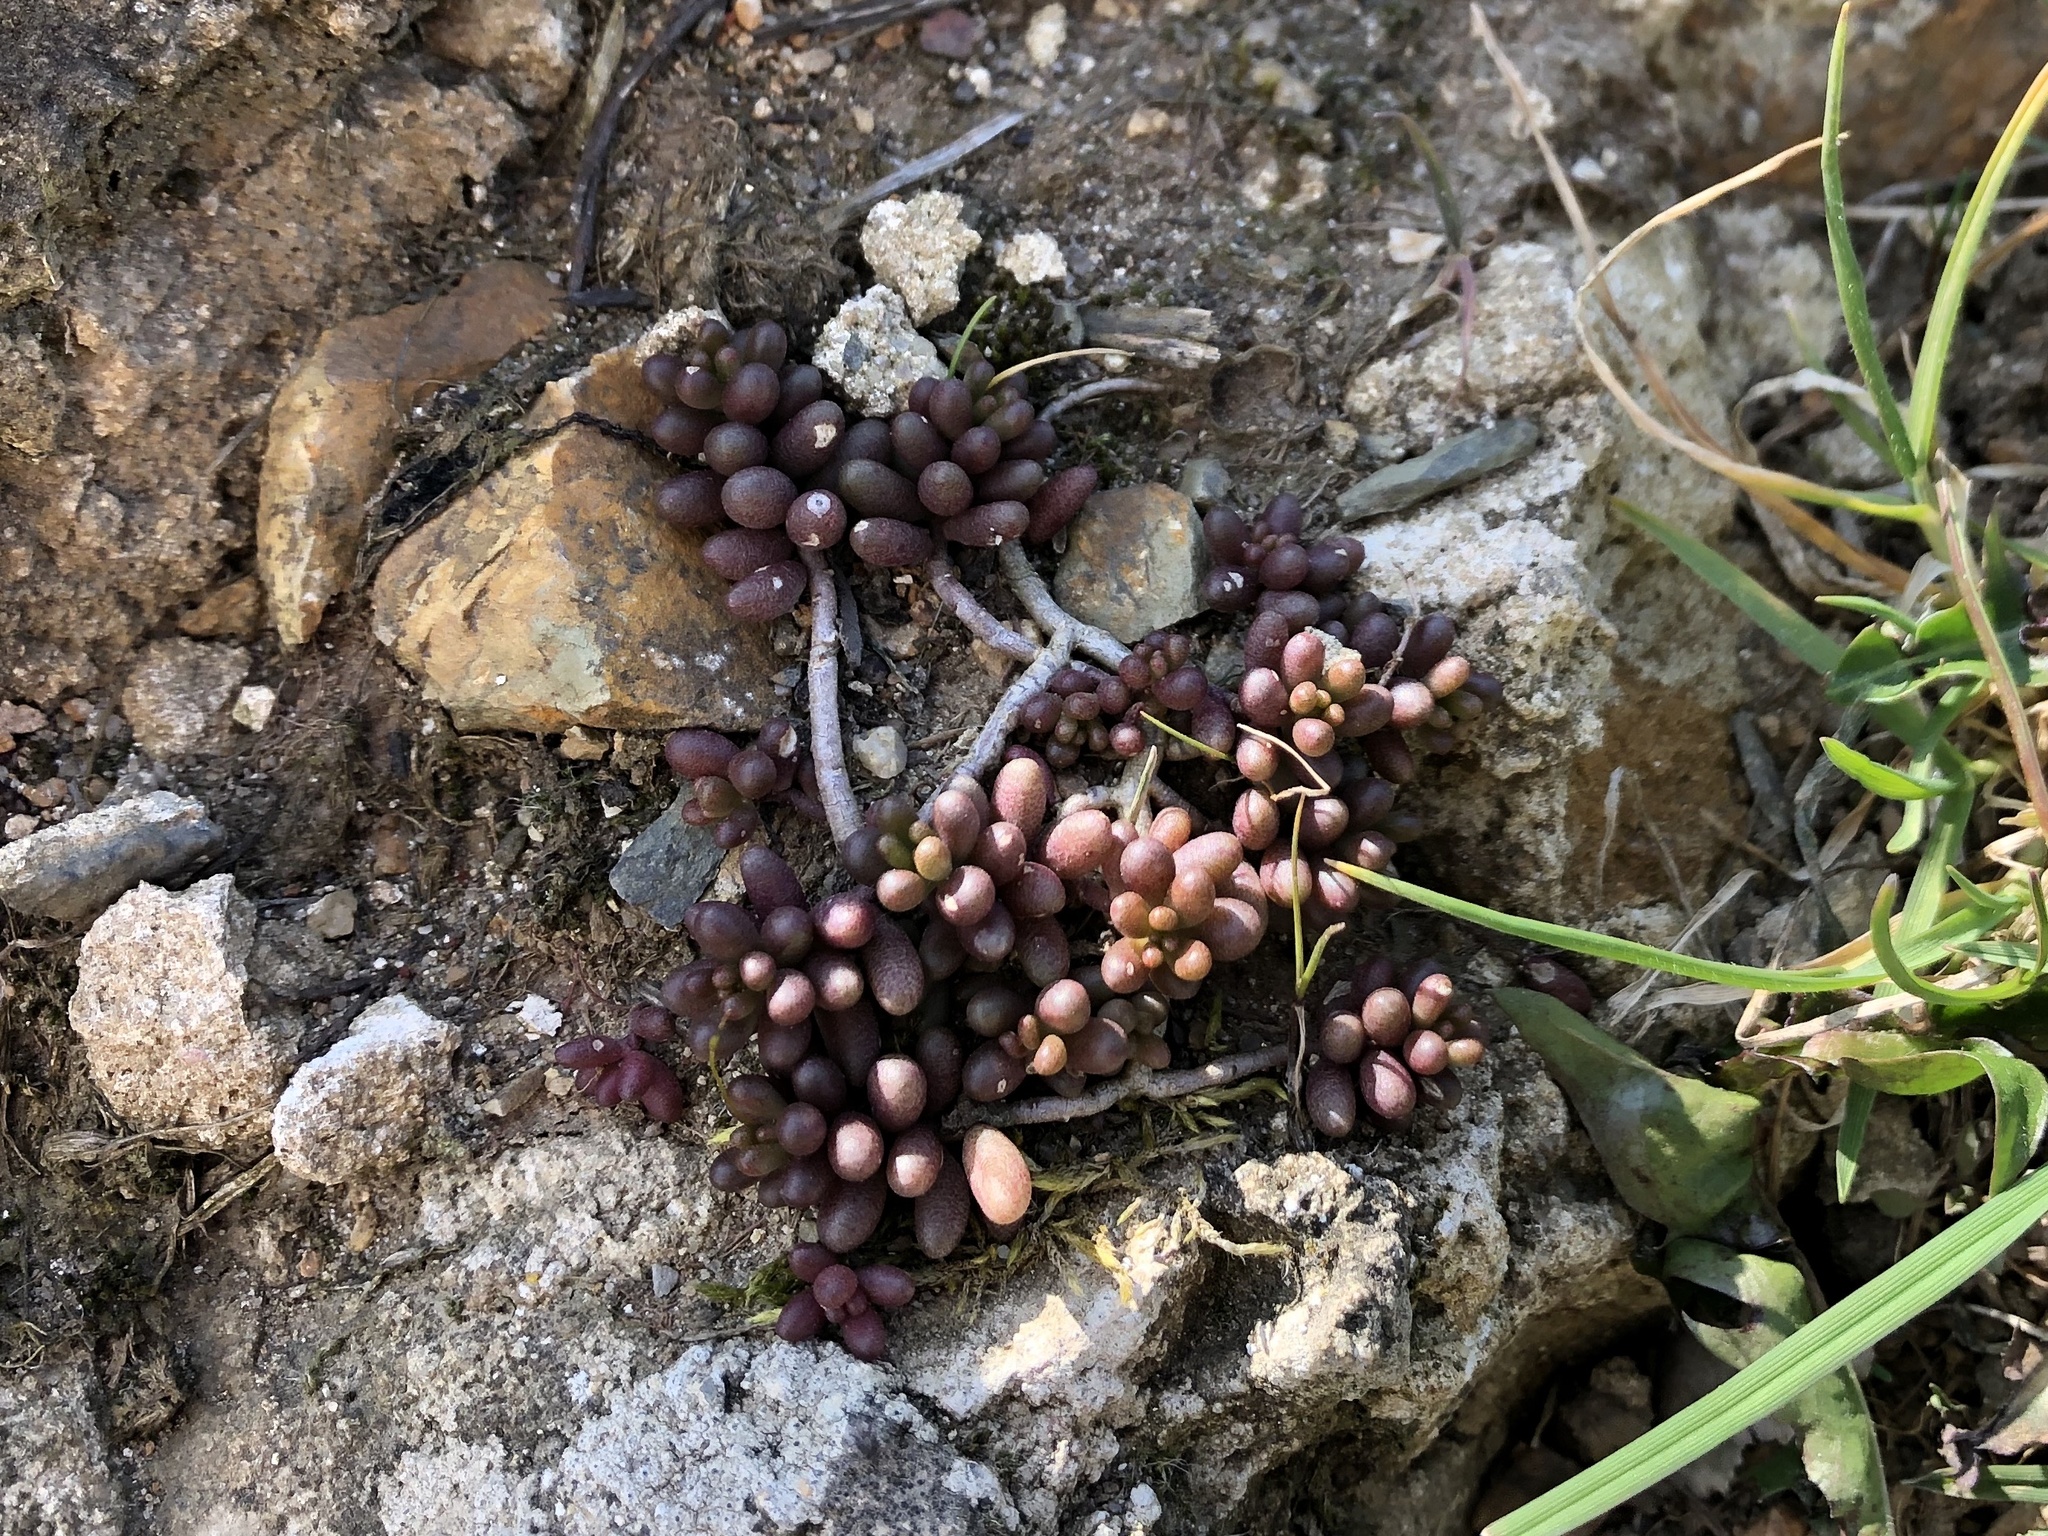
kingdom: Plantae
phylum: Tracheophyta
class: Magnoliopsida
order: Saxifragales
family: Crassulaceae
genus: Sedum
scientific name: Sedum album
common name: White stonecrop
